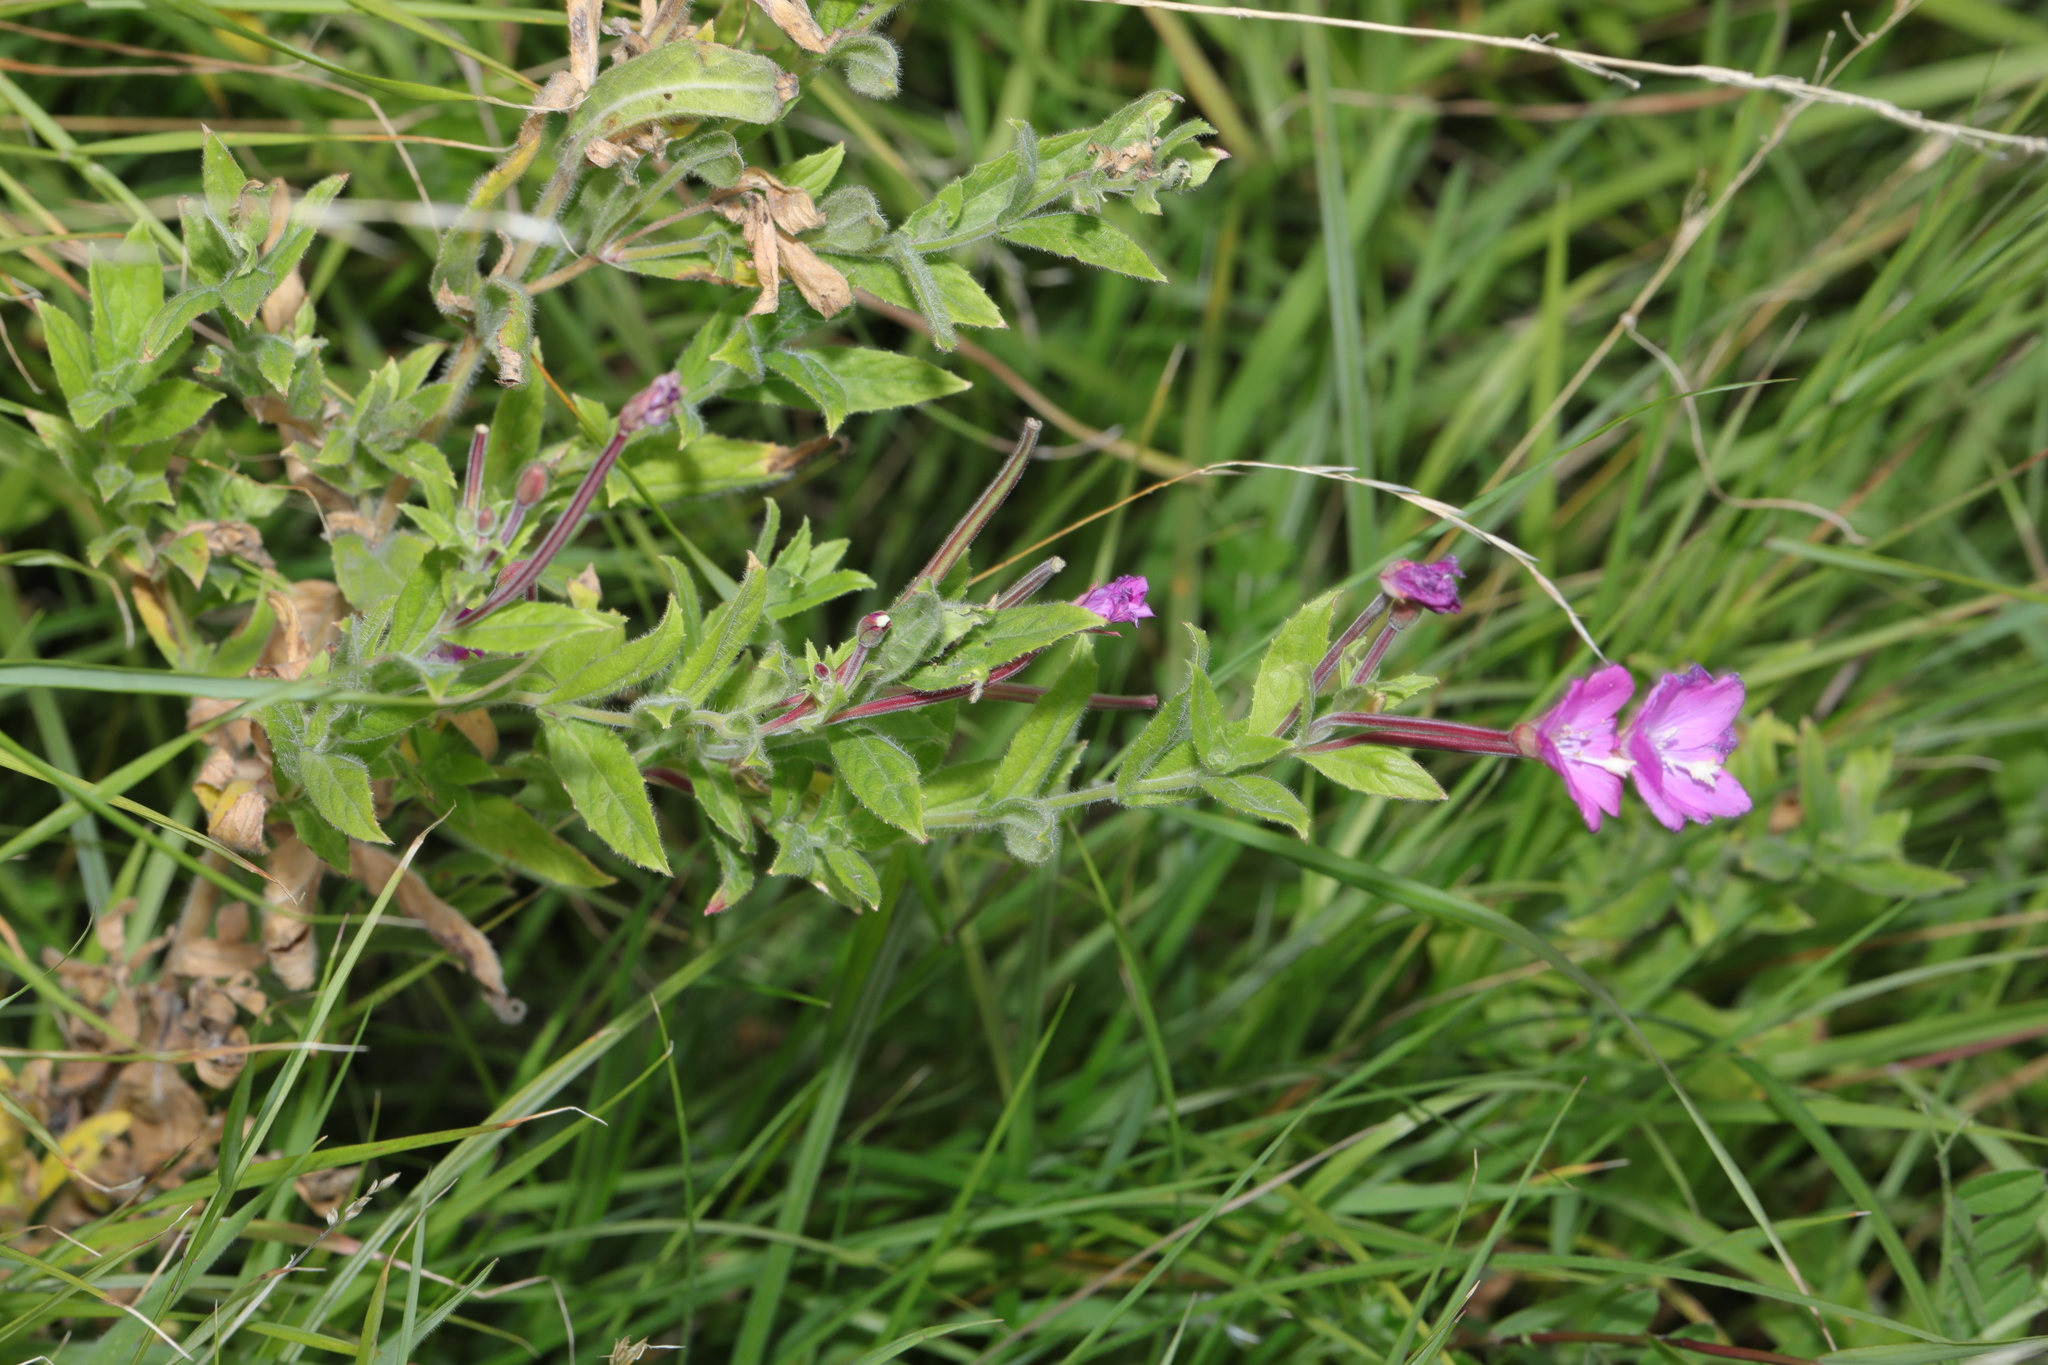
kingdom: Plantae
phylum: Tracheophyta
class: Magnoliopsida
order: Myrtales
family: Onagraceae
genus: Epilobium
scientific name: Epilobium hirsutum
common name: Great willowherb
